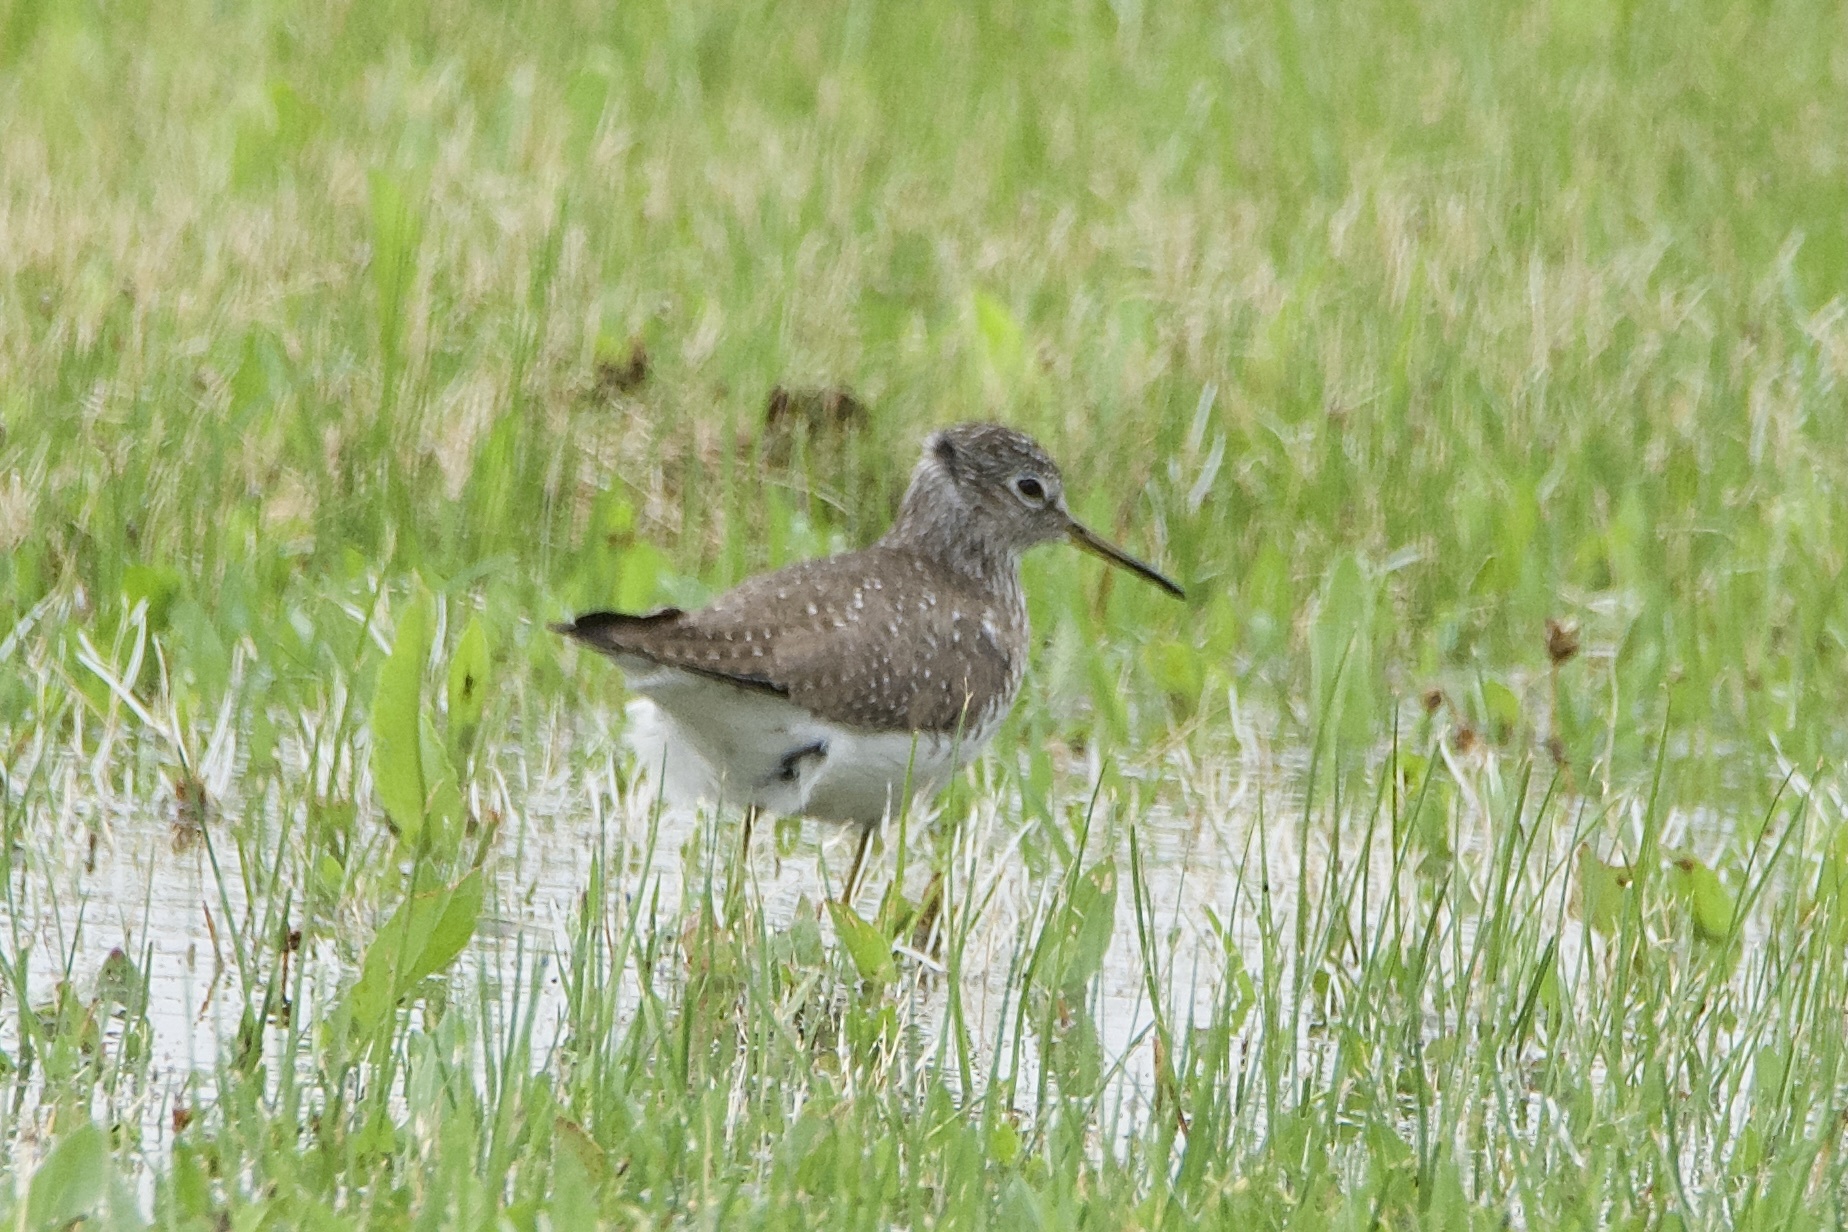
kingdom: Animalia
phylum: Chordata
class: Aves
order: Charadriiformes
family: Scolopacidae
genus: Tringa
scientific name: Tringa solitaria
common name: Solitary sandpiper
